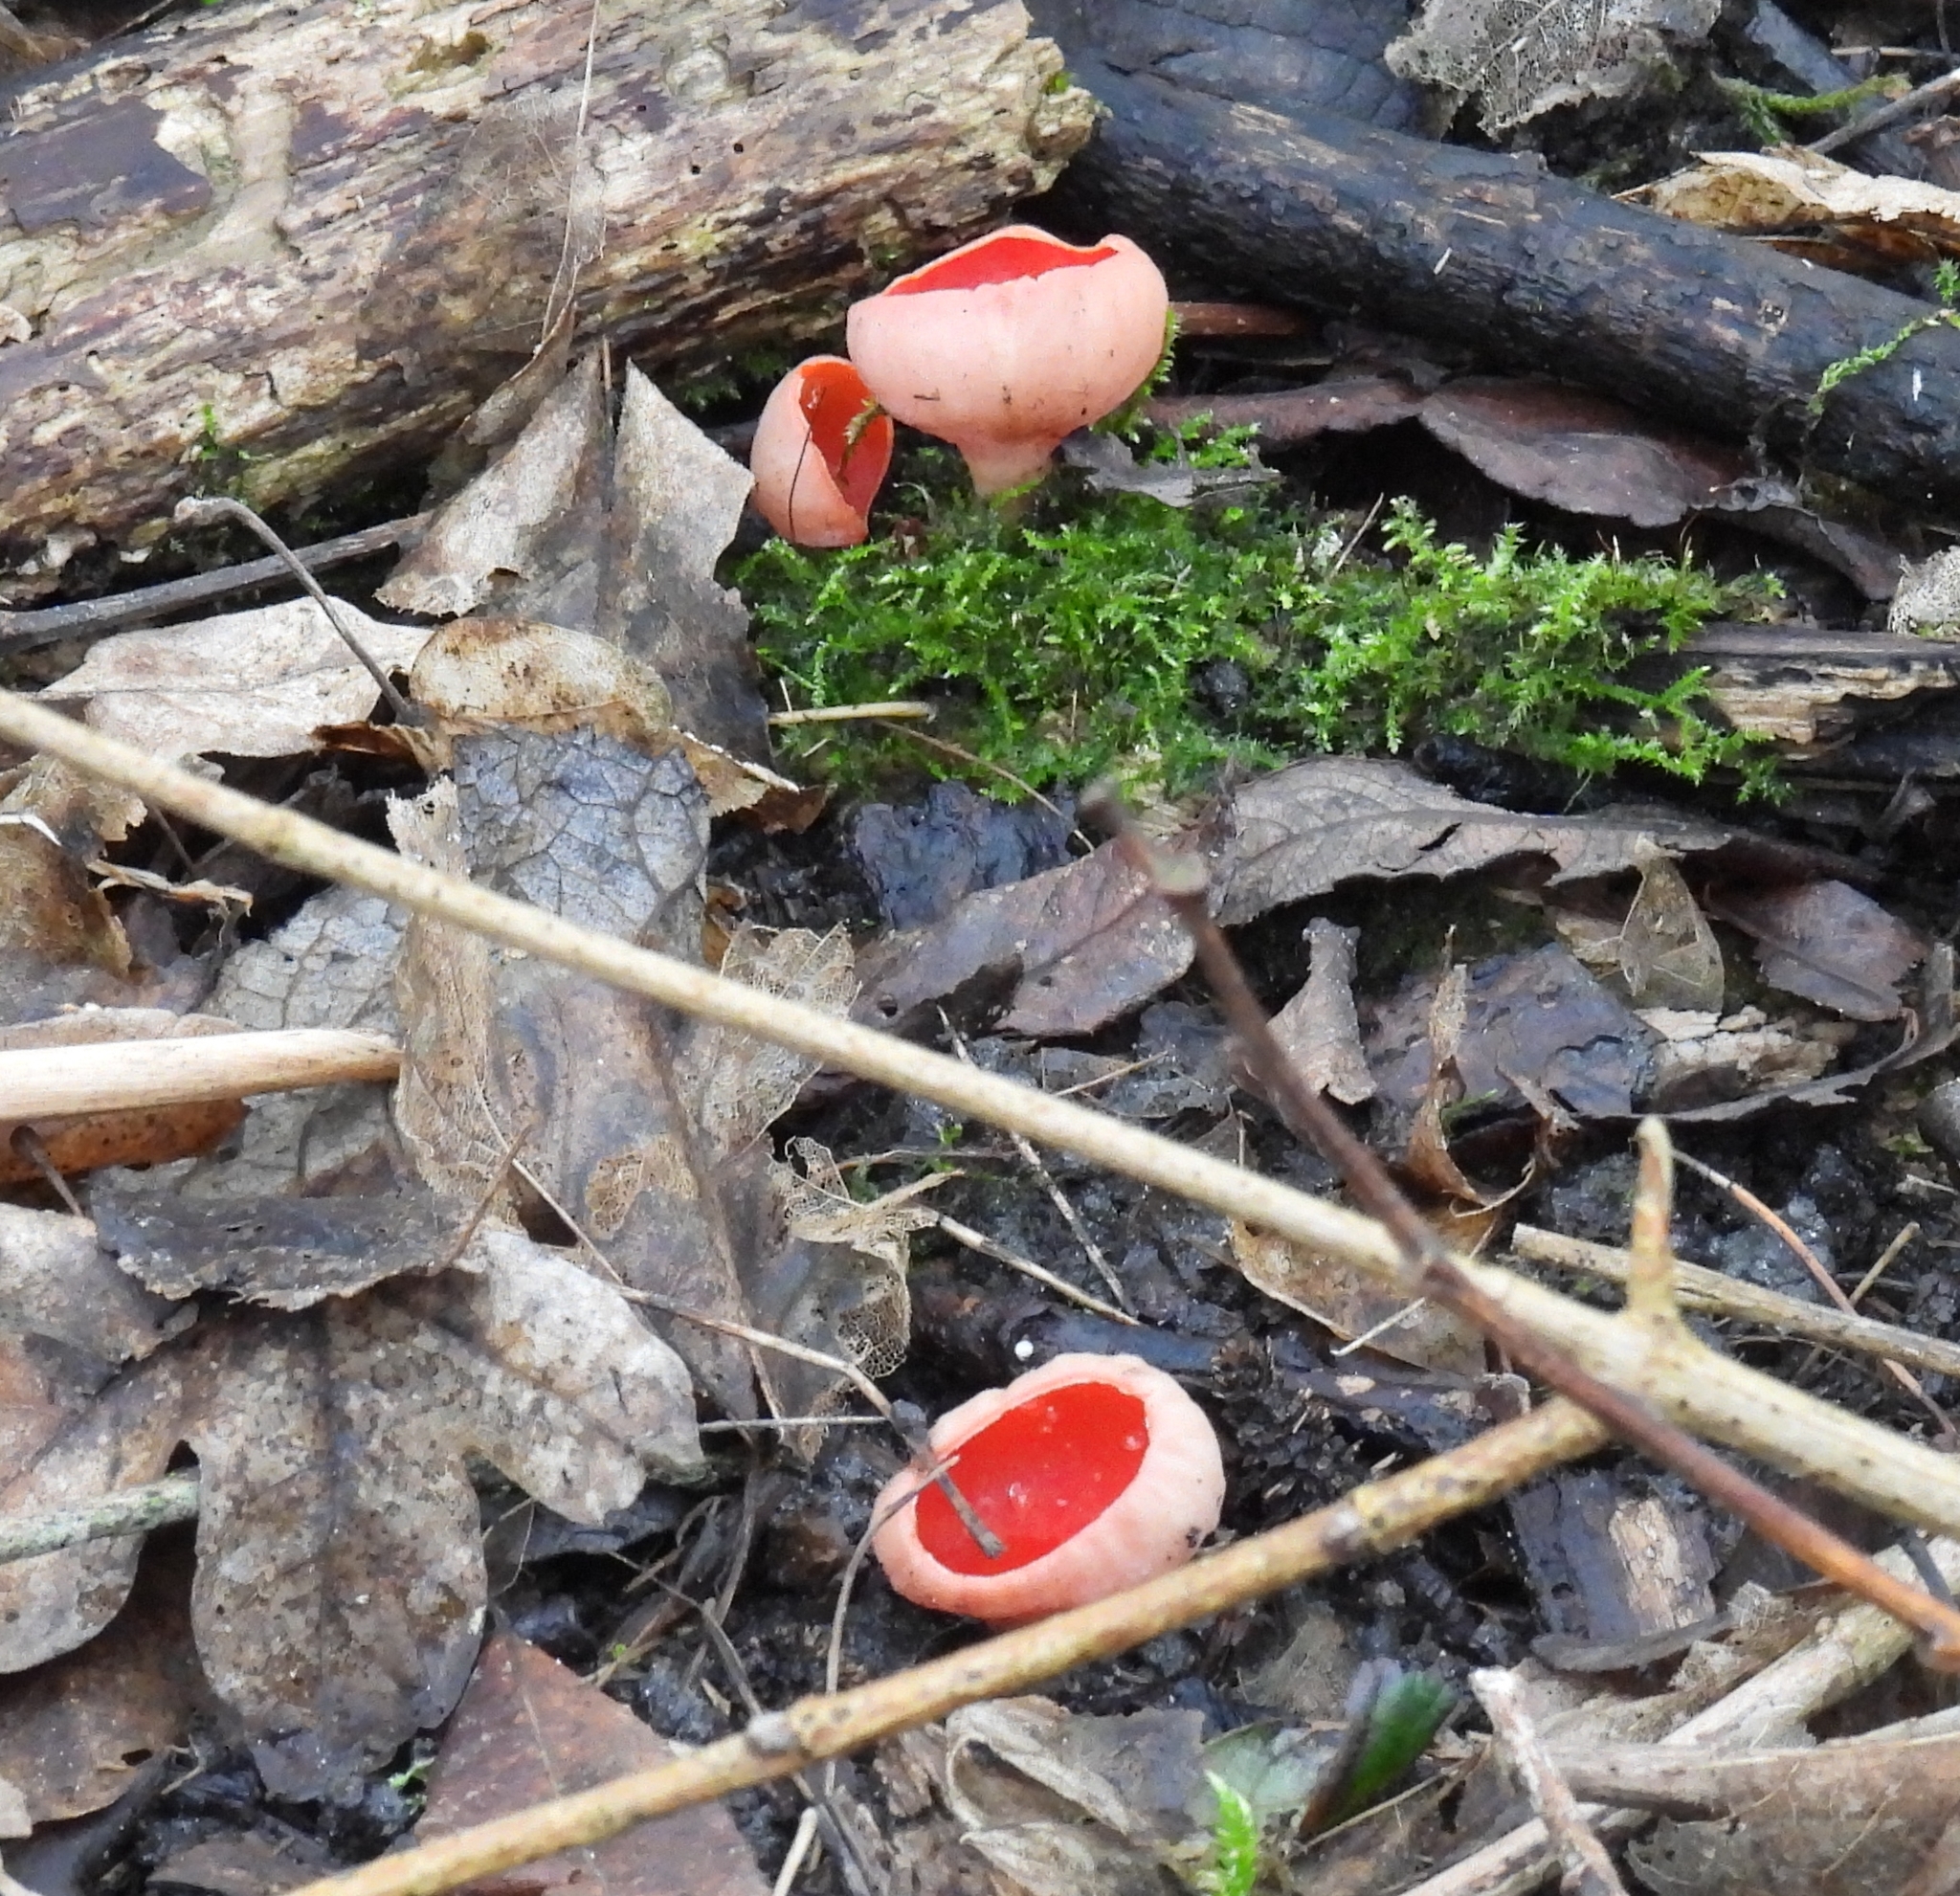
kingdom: Fungi
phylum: Ascomycota
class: Pezizomycetes
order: Pezizales
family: Sarcoscyphaceae
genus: Sarcoscypha
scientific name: Sarcoscypha
